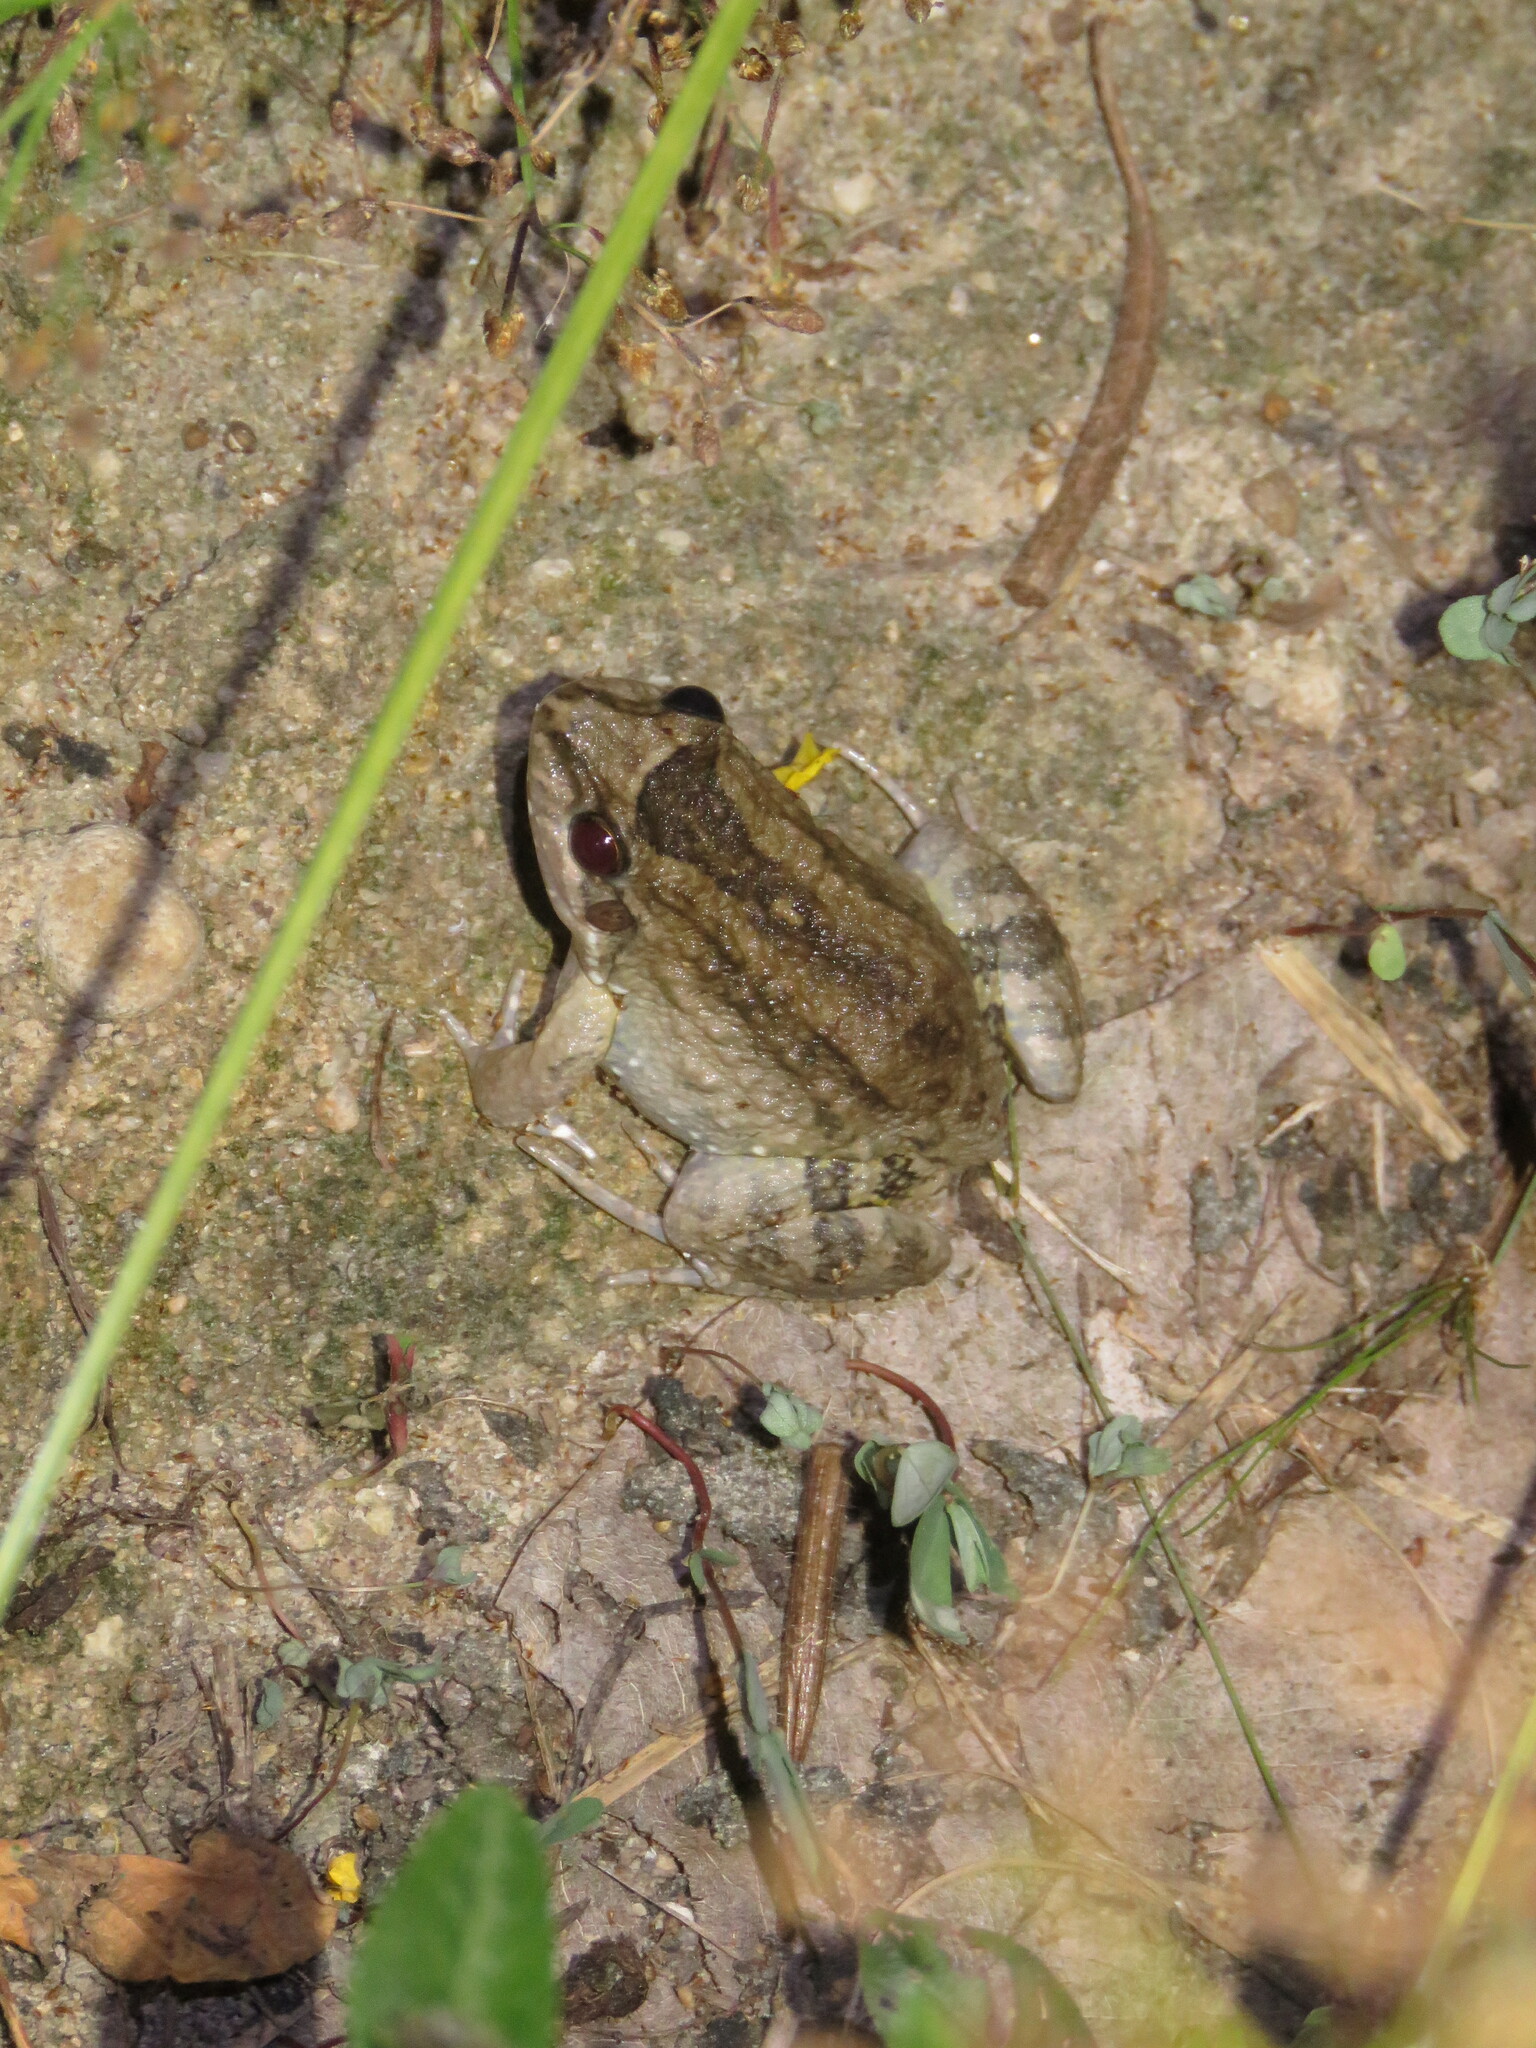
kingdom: Animalia
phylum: Chordata
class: Amphibia
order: Anura
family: Leptodactylidae
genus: Leptodactylus
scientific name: Leptodactylus podicipinus
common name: Pointedbelly frog
